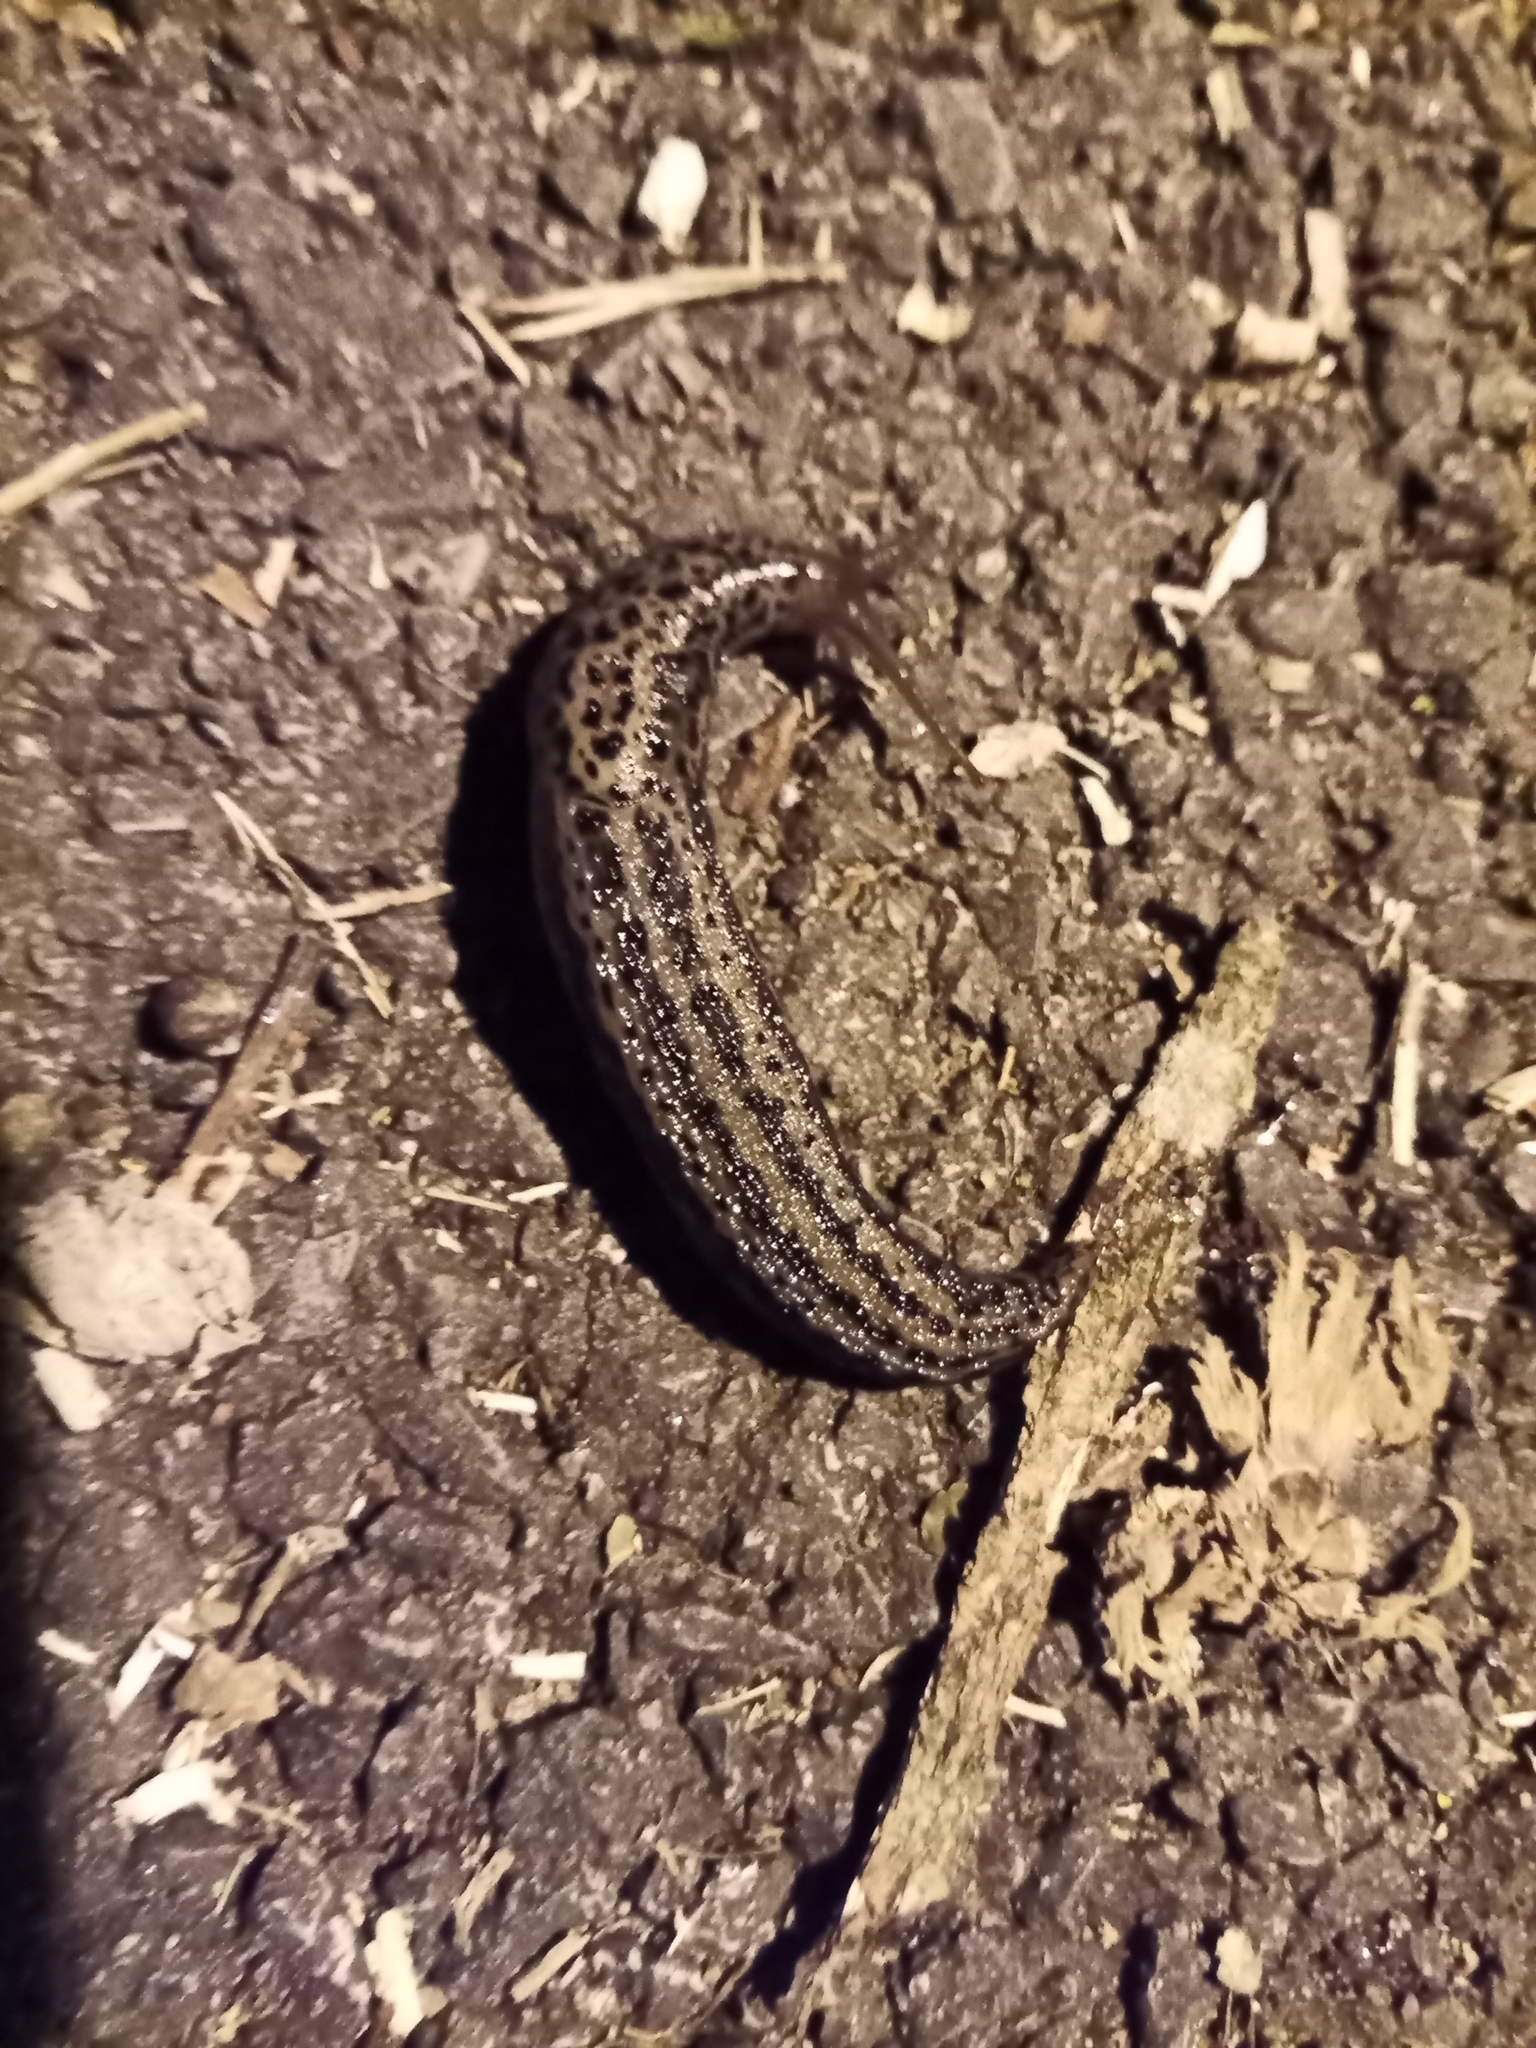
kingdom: Animalia
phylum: Mollusca
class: Gastropoda
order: Stylommatophora
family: Limacidae
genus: Limax
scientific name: Limax maximus
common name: Great grey slug
